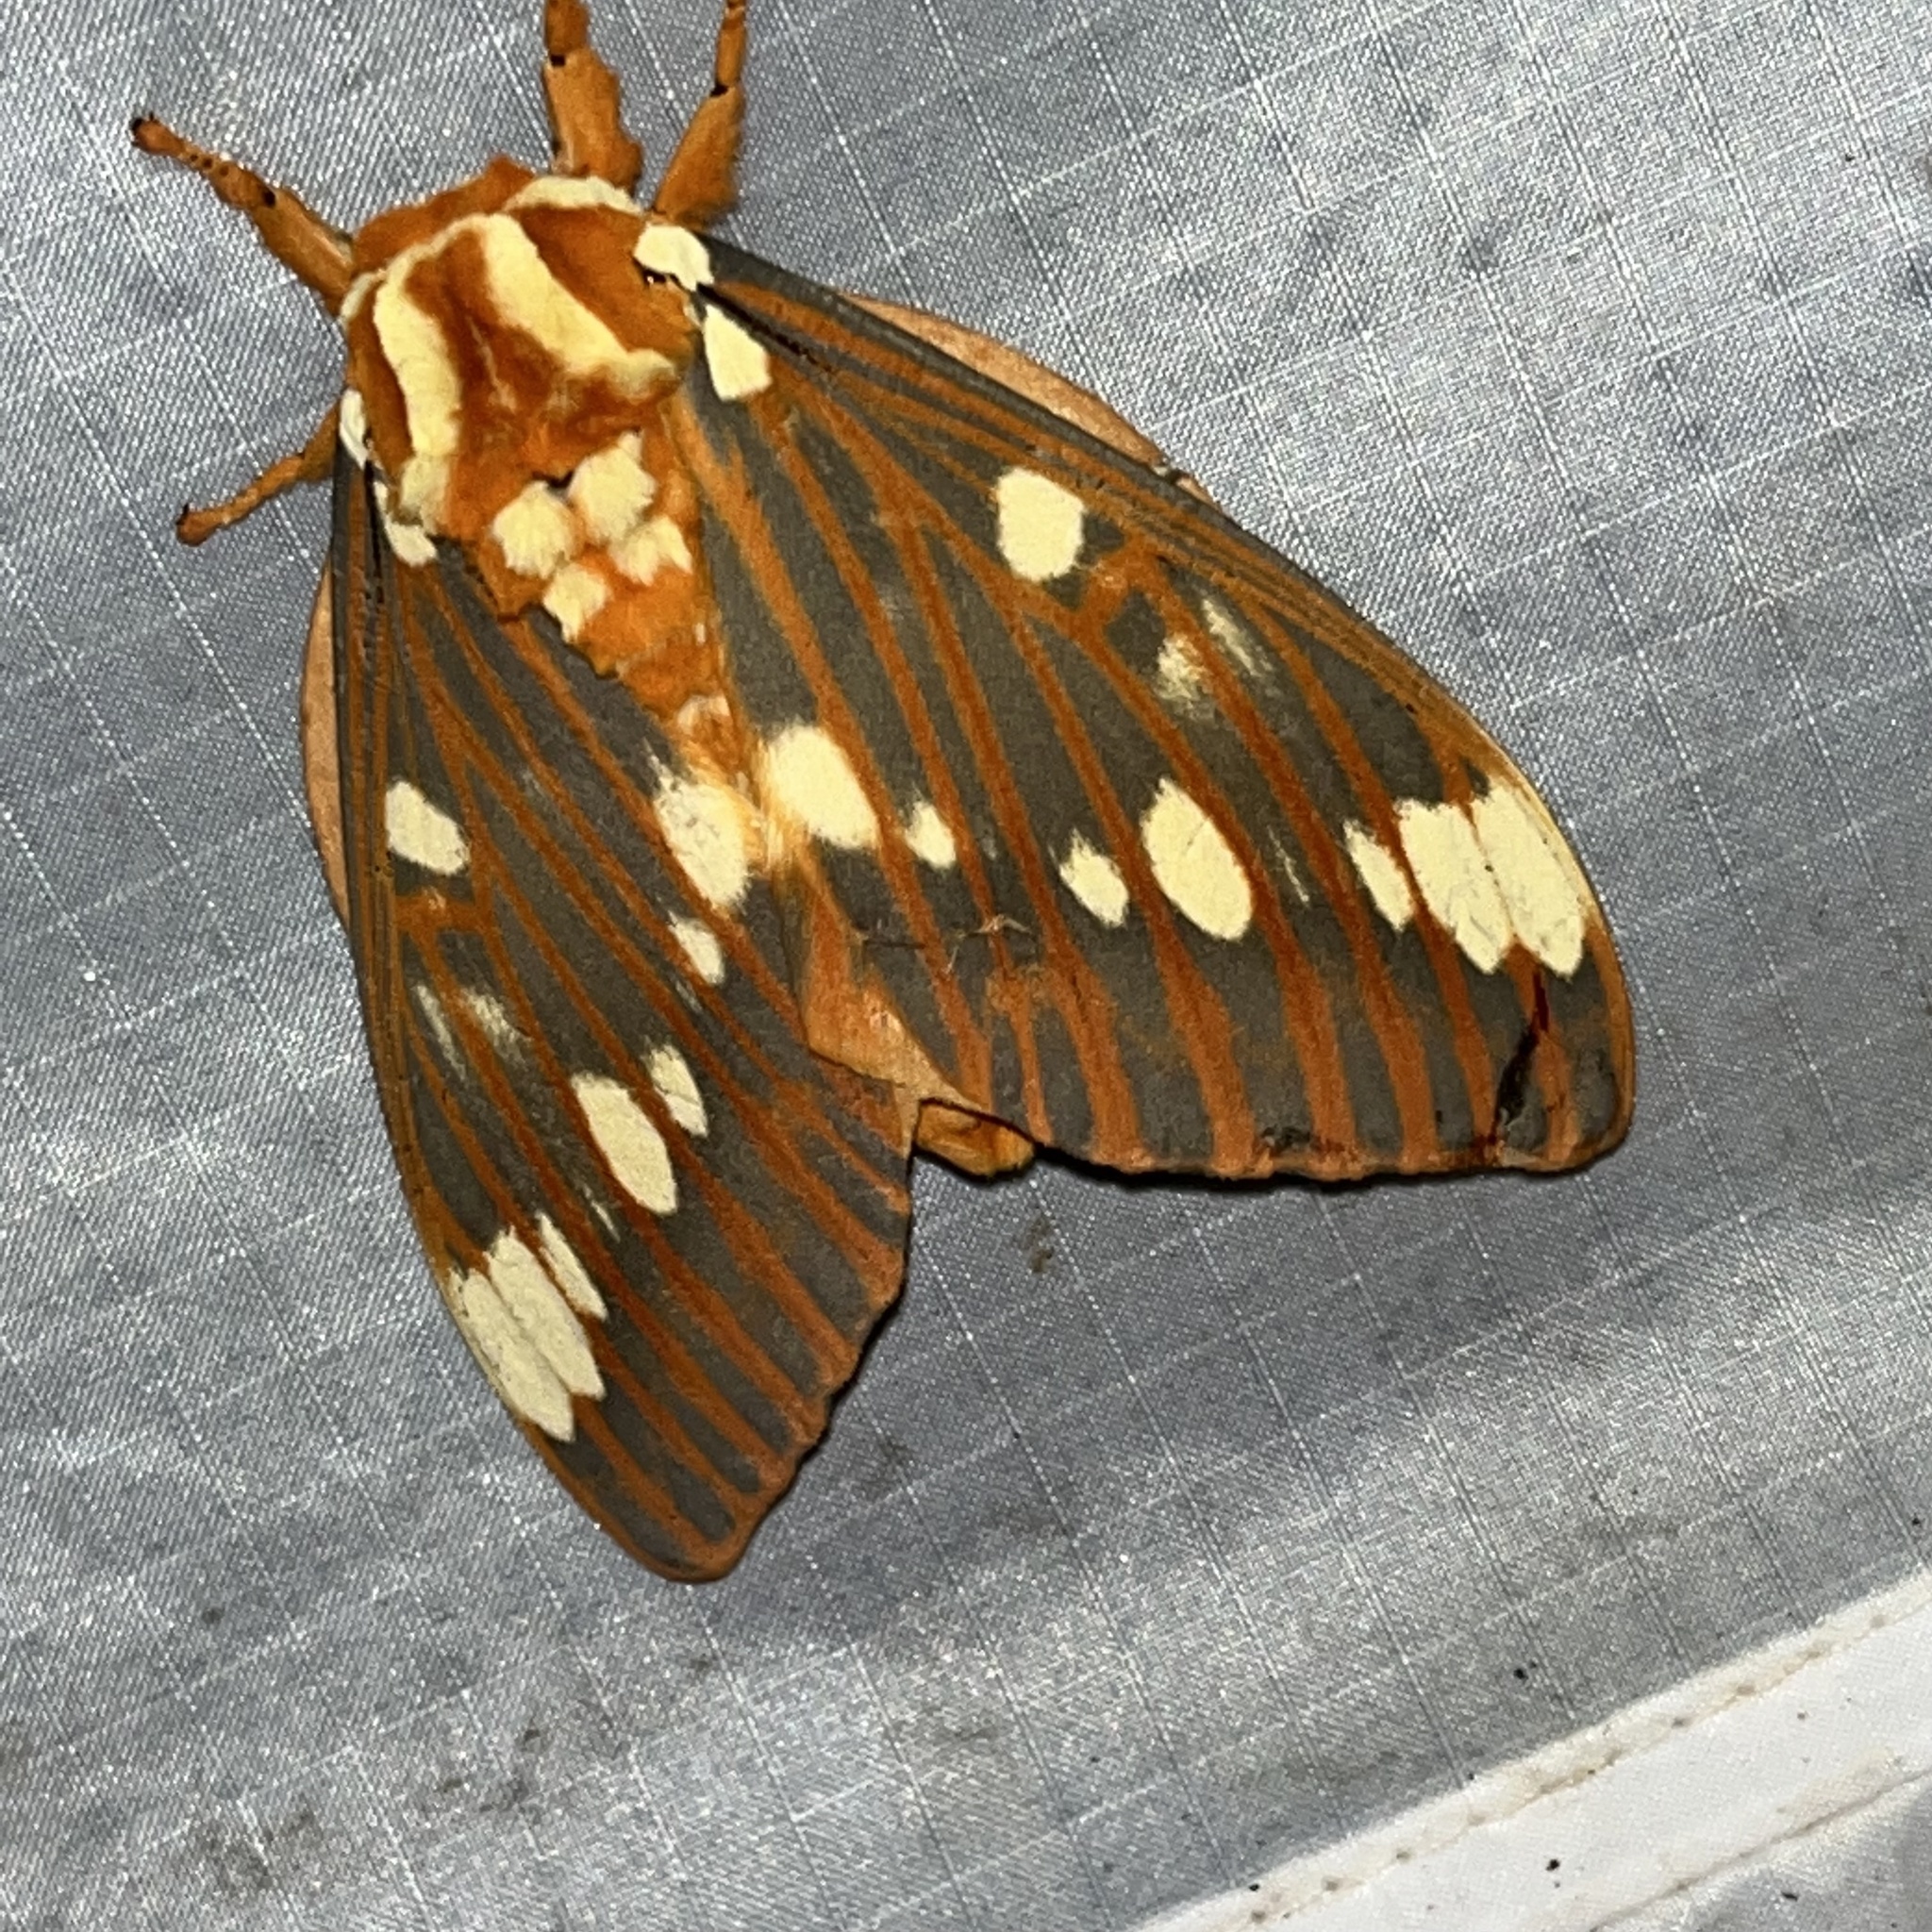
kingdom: Animalia
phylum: Arthropoda
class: Insecta
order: Lepidoptera
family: Saturniidae
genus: Citheronia
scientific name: Citheronia regalis
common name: Hickory horned devil
